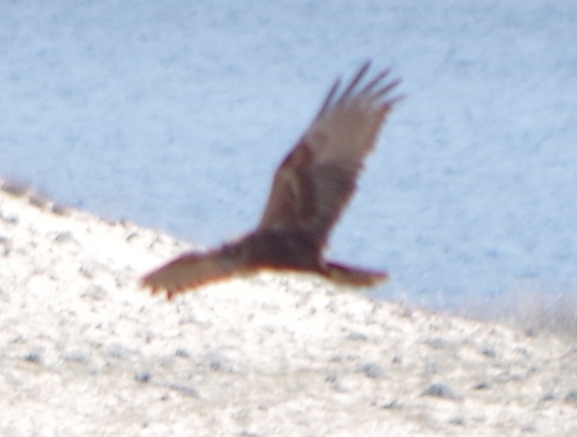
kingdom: Animalia
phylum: Chordata
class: Aves
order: Accipitriformes
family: Accipitridae
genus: Circus
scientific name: Circus aeruginosus
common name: Western marsh harrier
